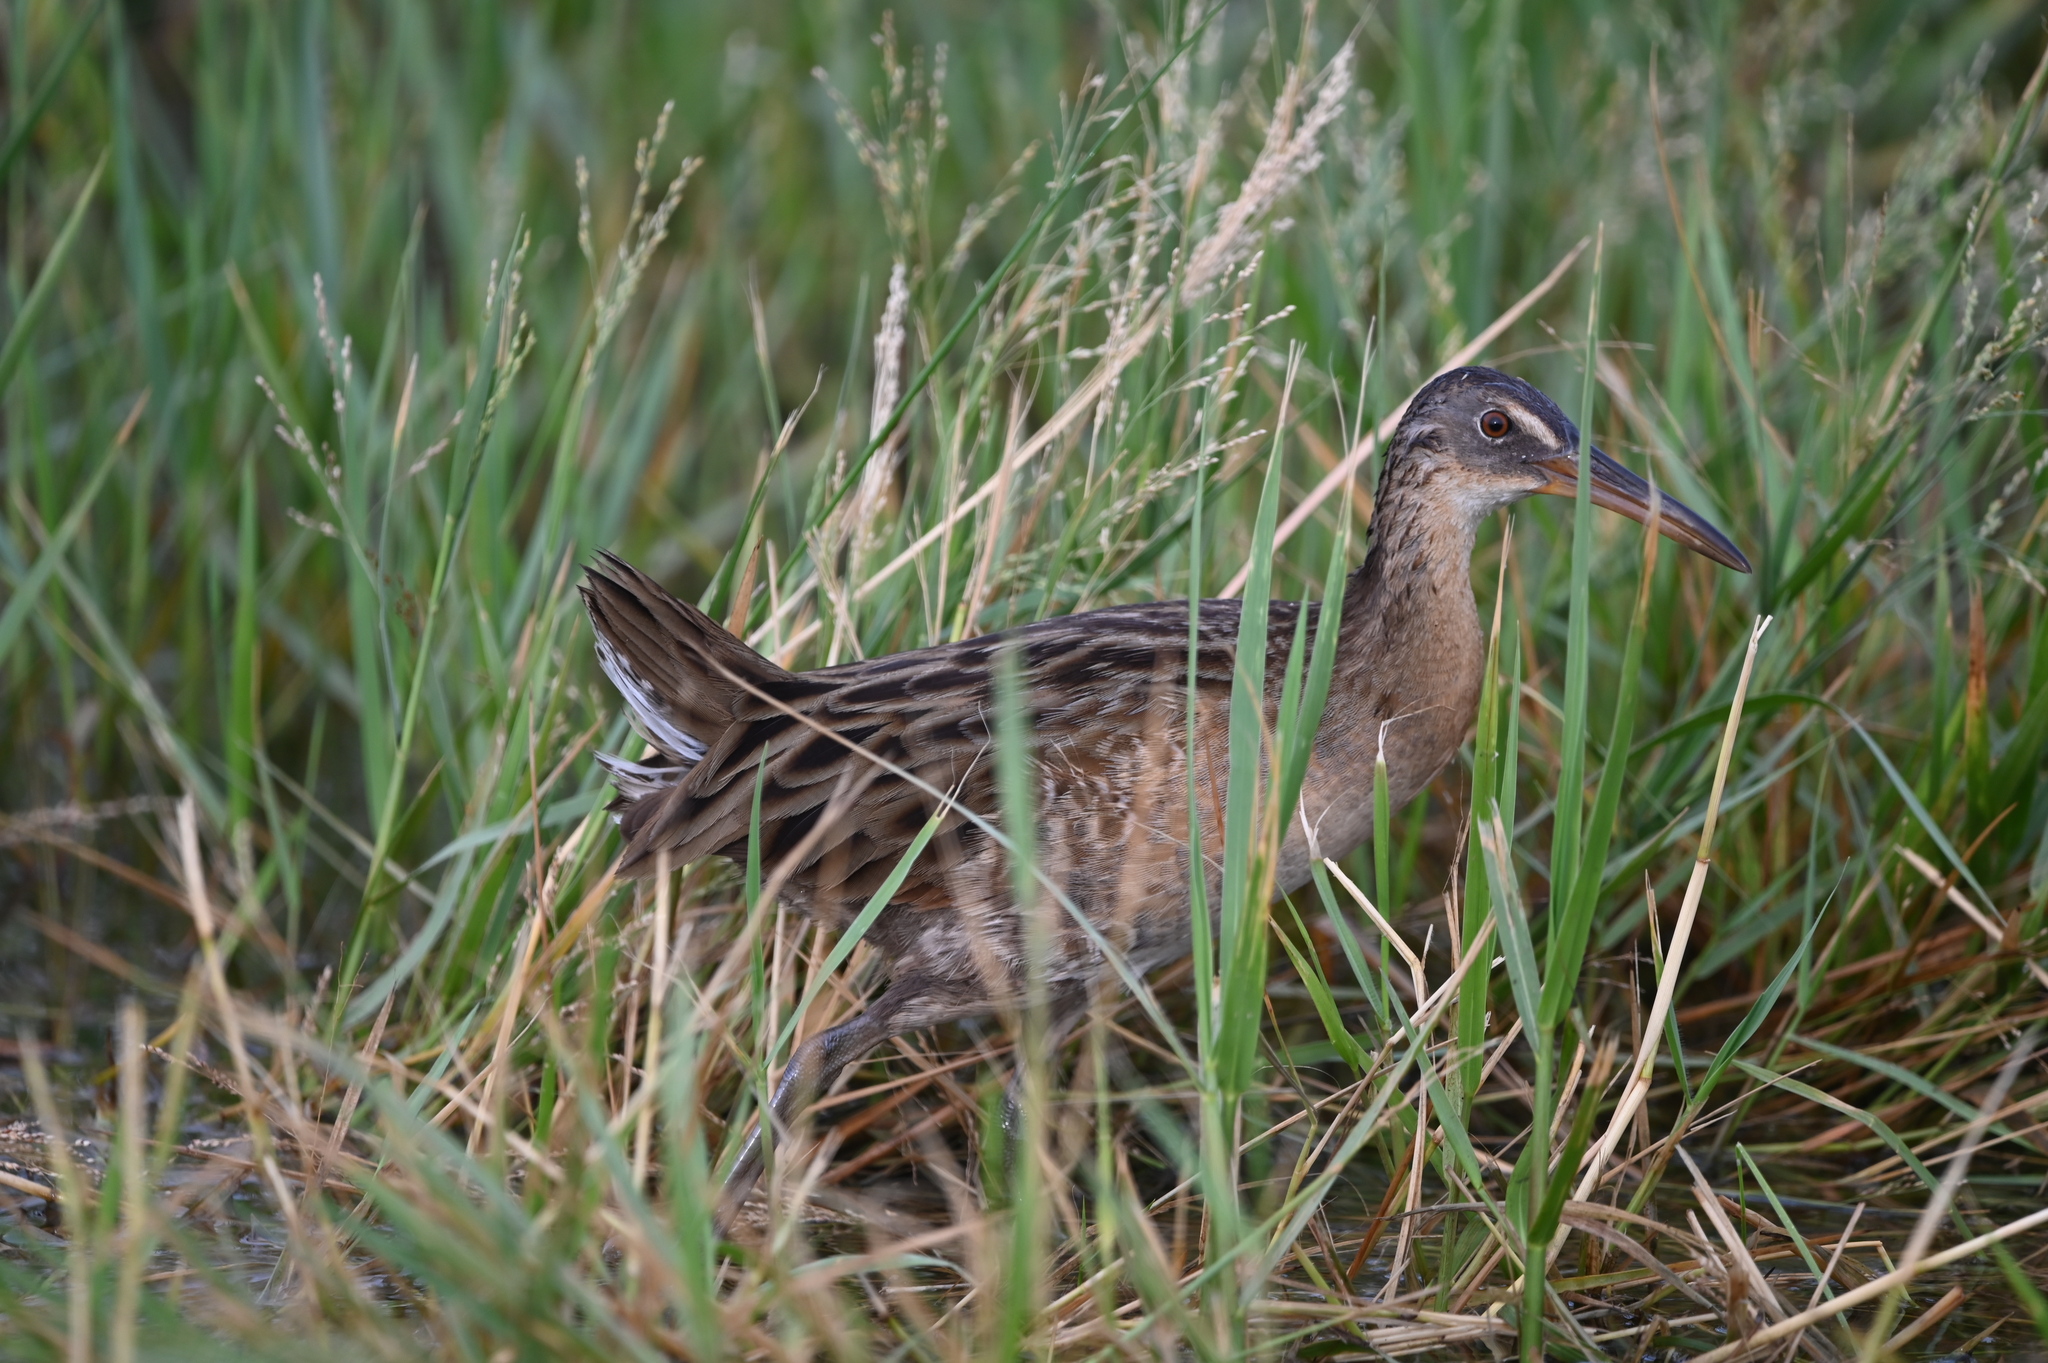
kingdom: Animalia
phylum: Chordata
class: Aves
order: Gruiformes
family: Rallidae
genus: Rallus
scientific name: Rallus crepitans
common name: Clapper rail
